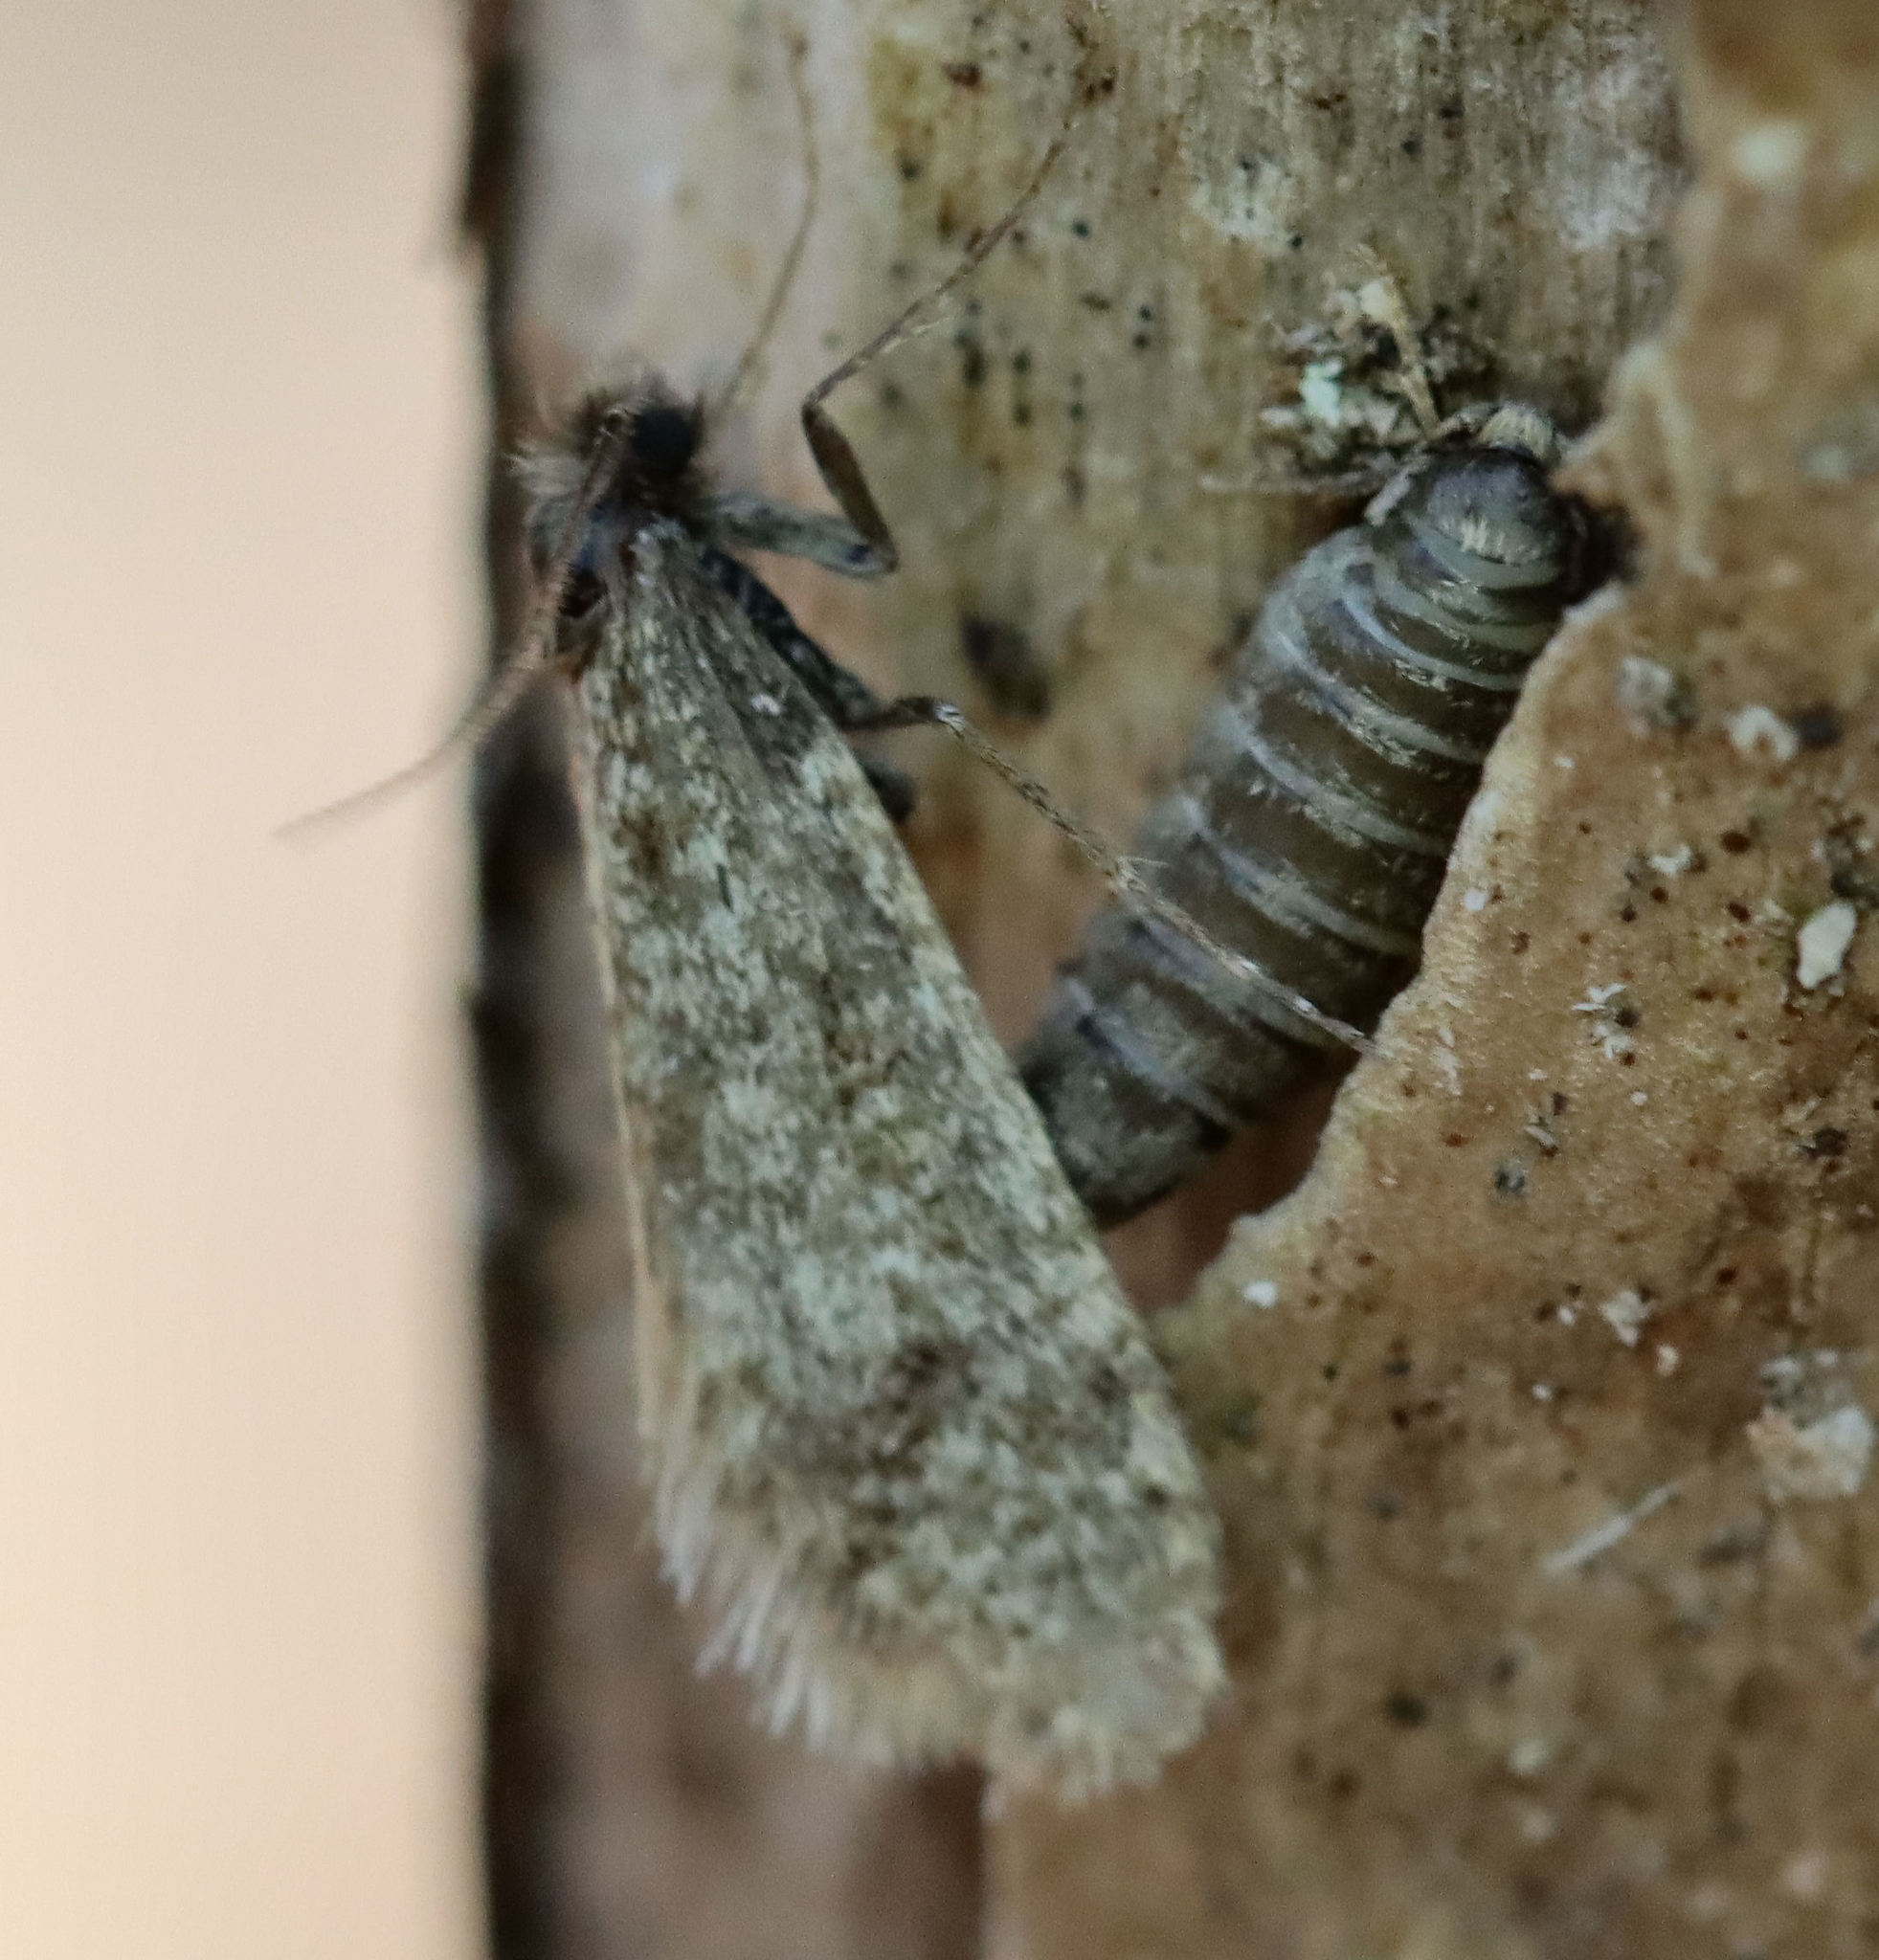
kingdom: Animalia
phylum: Arthropoda
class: Insecta
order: Lepidoptera
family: Psychidae
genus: Dahlica
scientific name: Dahlica walshella
